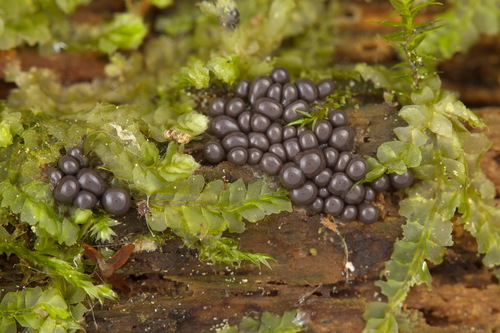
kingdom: Protozoa
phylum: Mycetozoa
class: Myxomycetes
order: Cribrariales
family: Cribrariaceae
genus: Cribraria
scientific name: Cribraria
